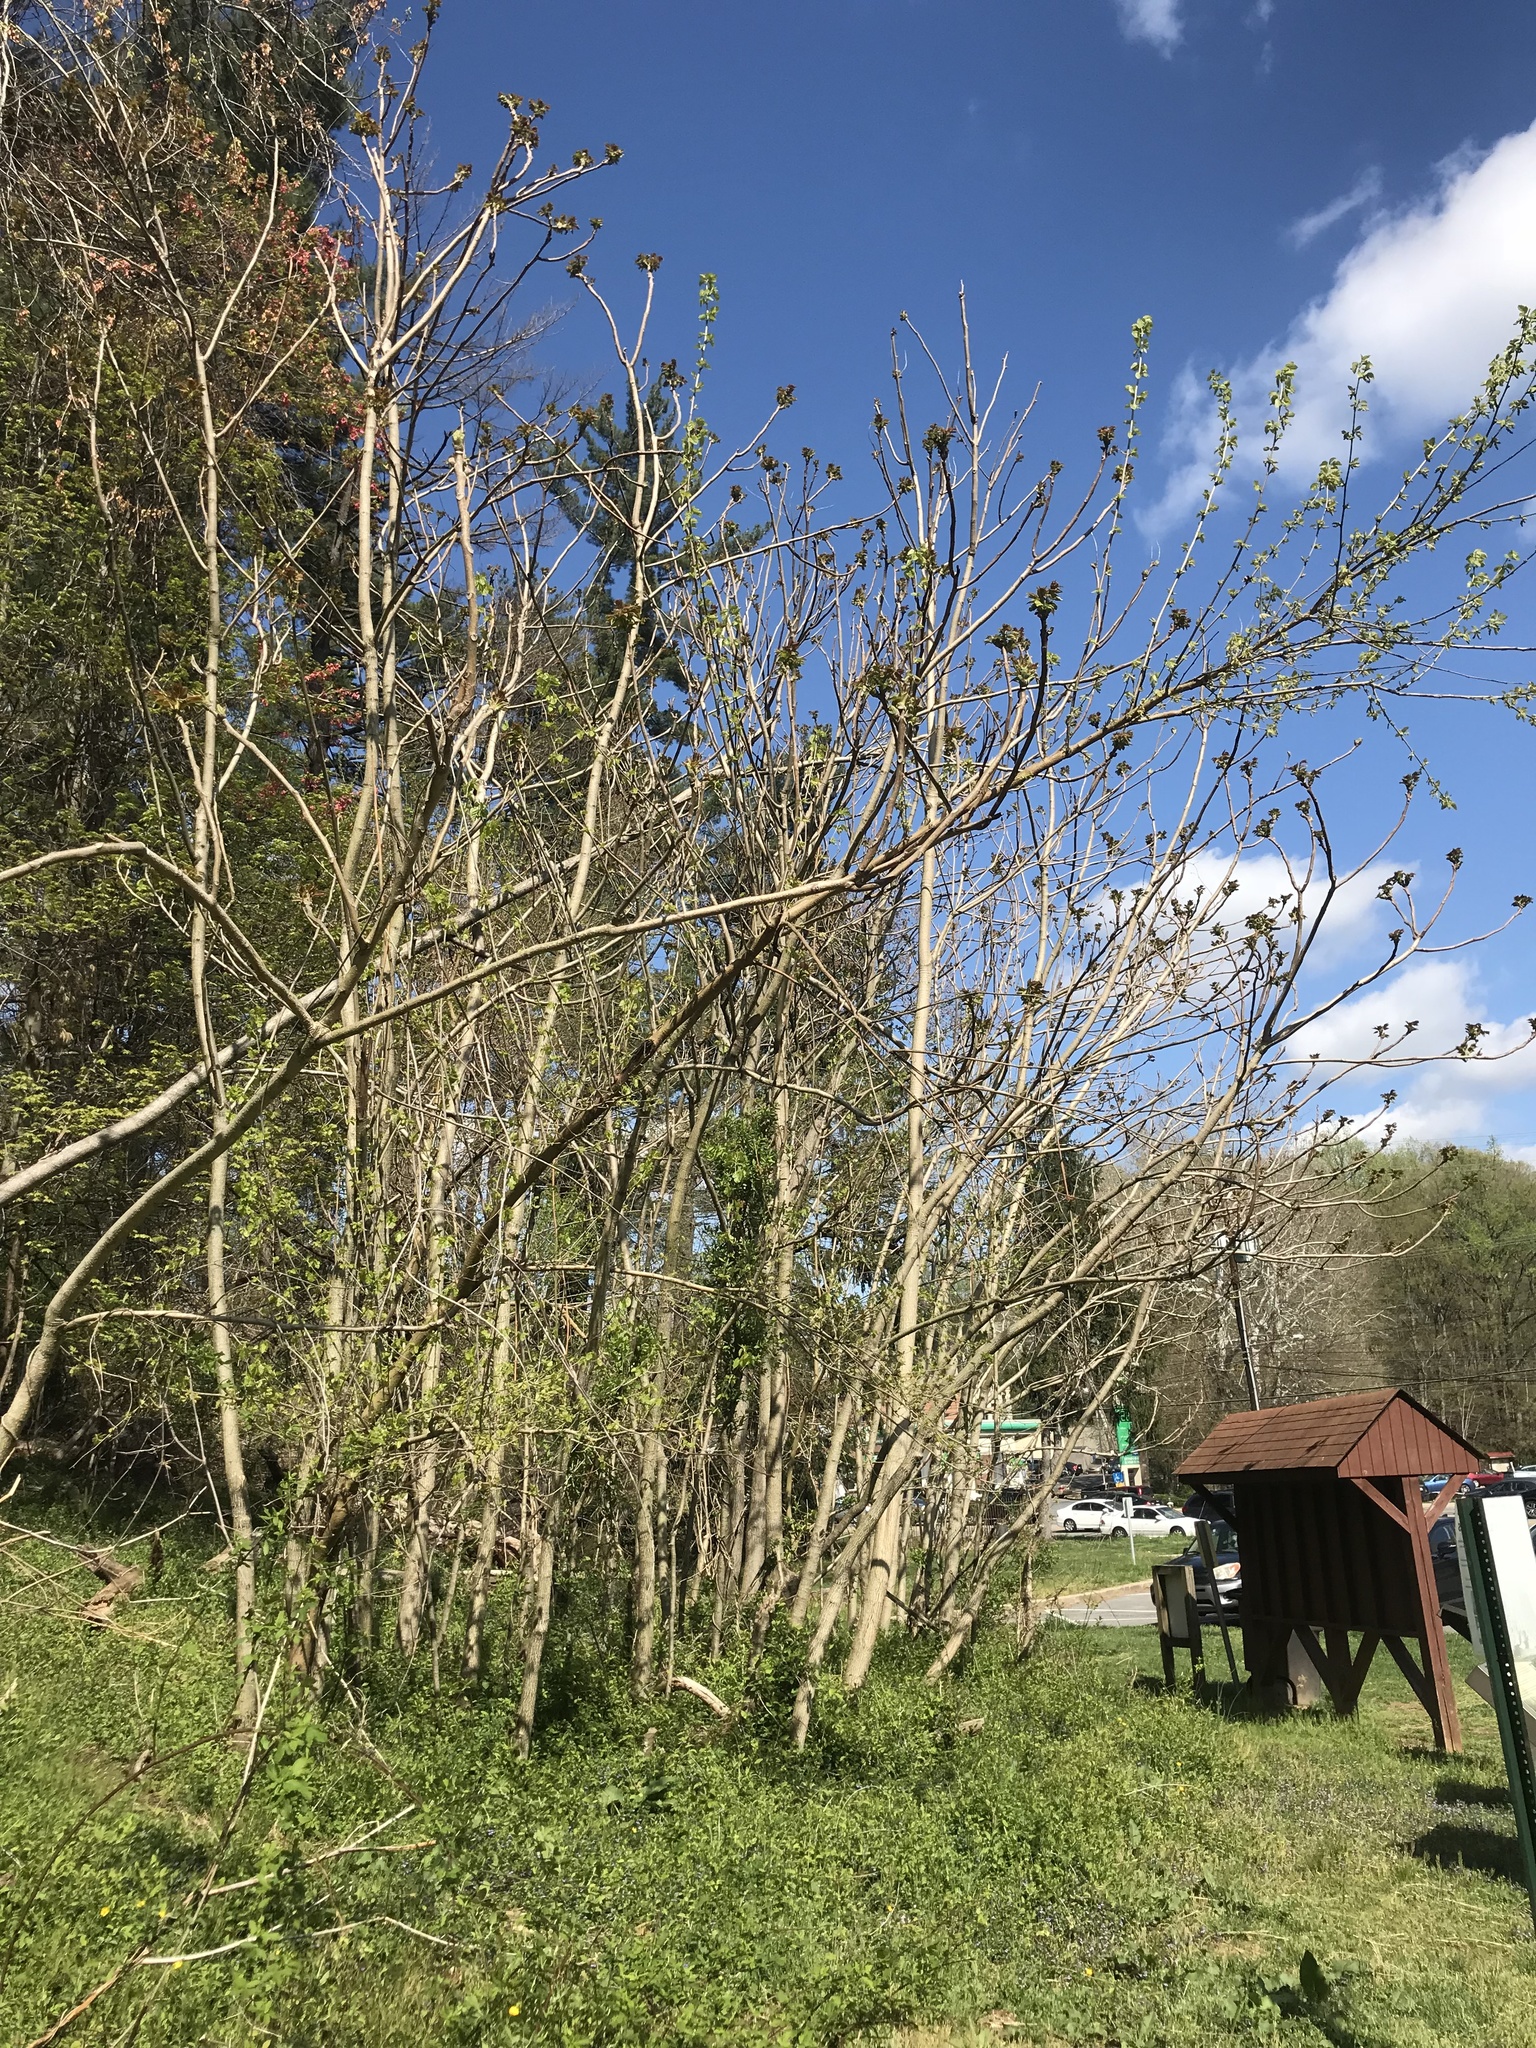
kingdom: Plantae
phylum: Tracheophyta
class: Magnoliopsida
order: Sapindales
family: Simaroubaceae
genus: Ailanthus
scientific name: Ailanthus altissima
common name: Tree-of-heaven
